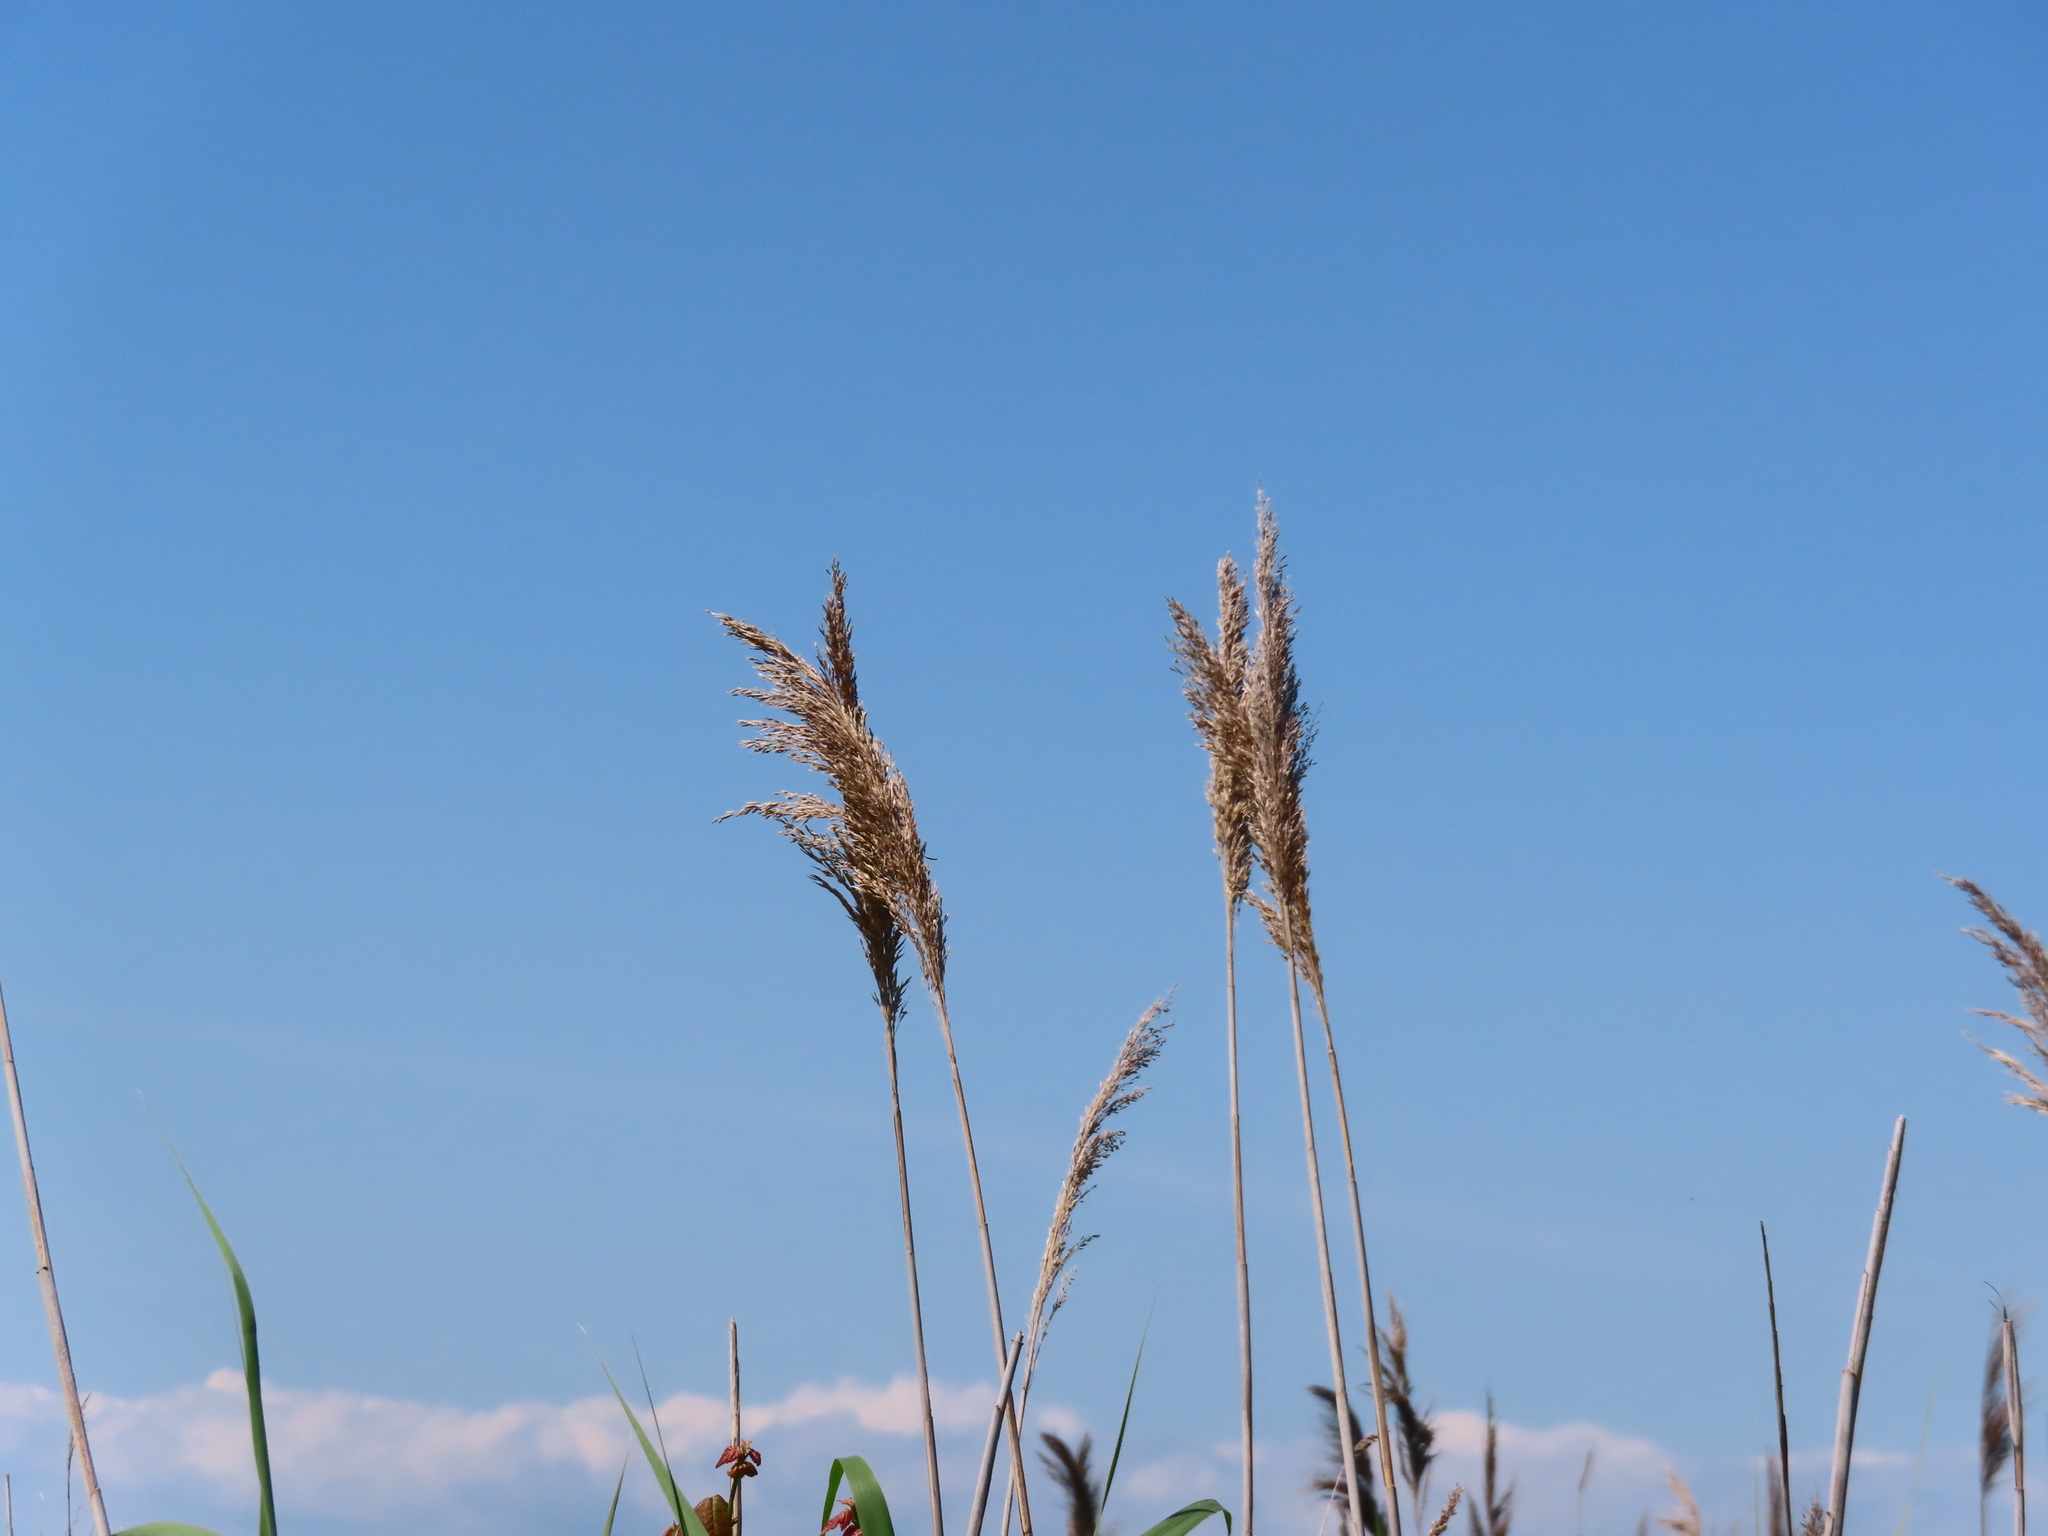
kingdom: Plantae
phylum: Tracheophyta
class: Liliopsida
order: Poales
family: Poaceae
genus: Phragmites
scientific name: Phragmites australis
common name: Common reed
